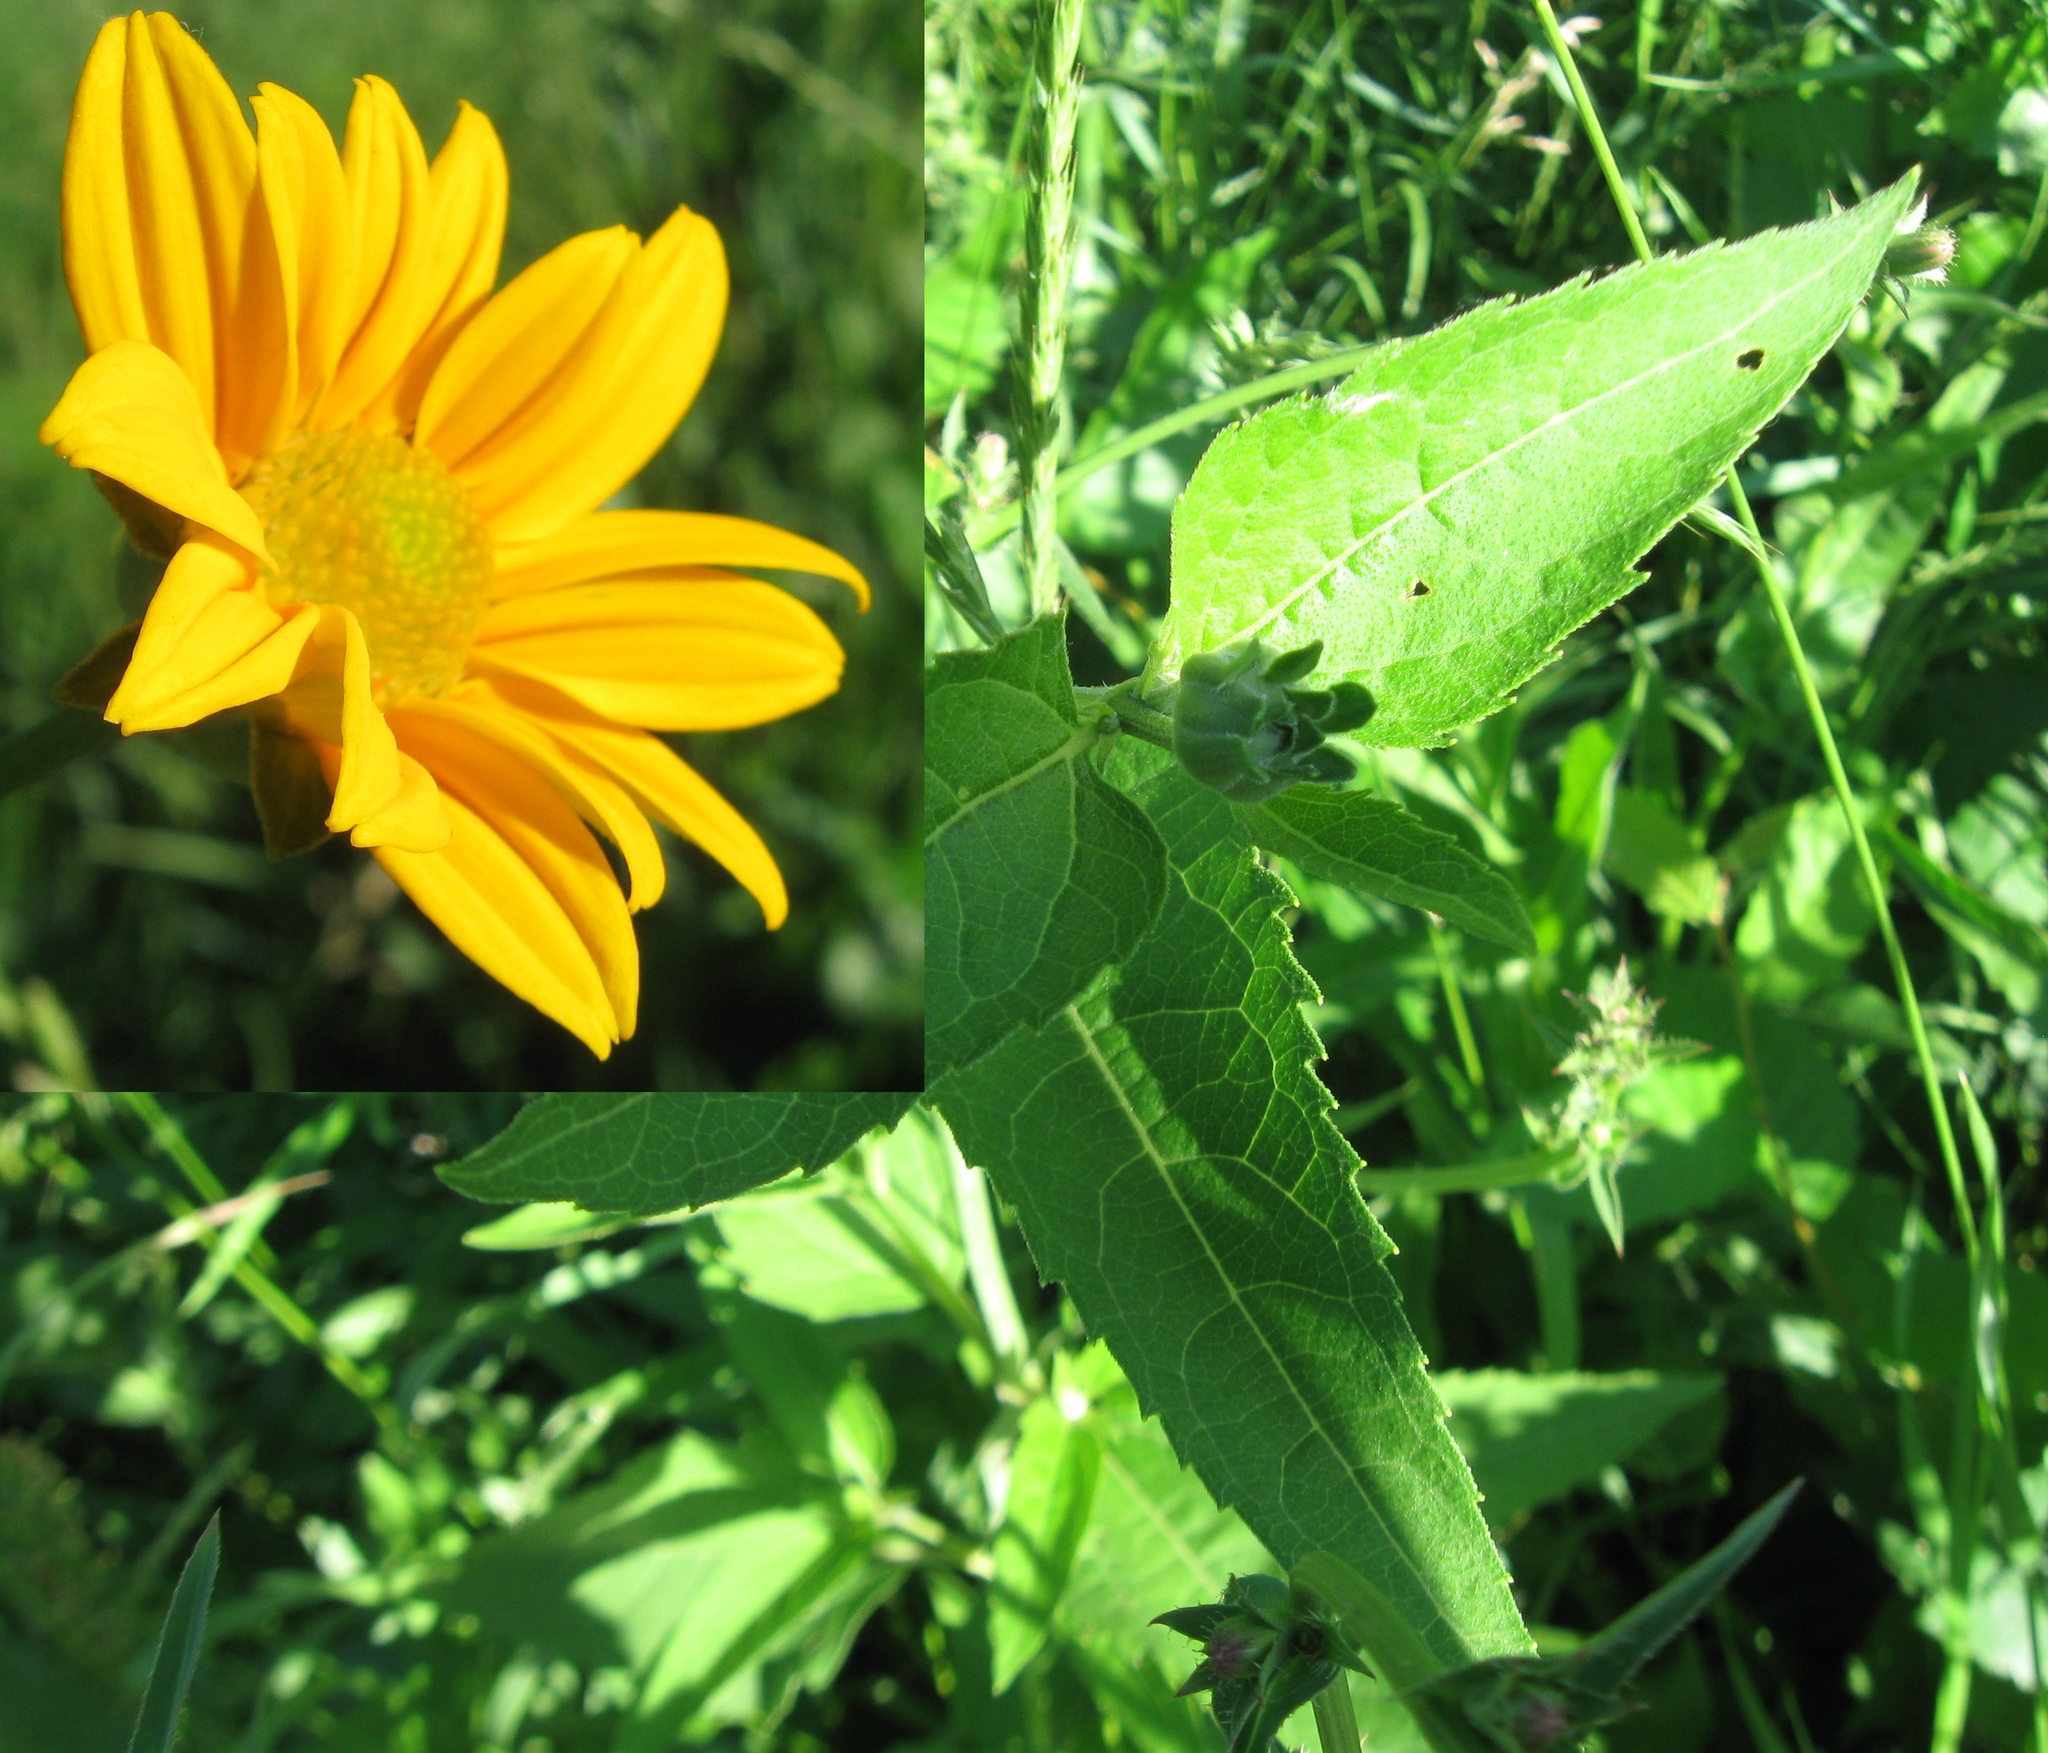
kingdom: Plantae
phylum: Tracheophyta
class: Magnoliopsida
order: Asterales
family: Asteraceae
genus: Heliopsis
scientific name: Heliopsis helianthoides
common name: False sunflower
